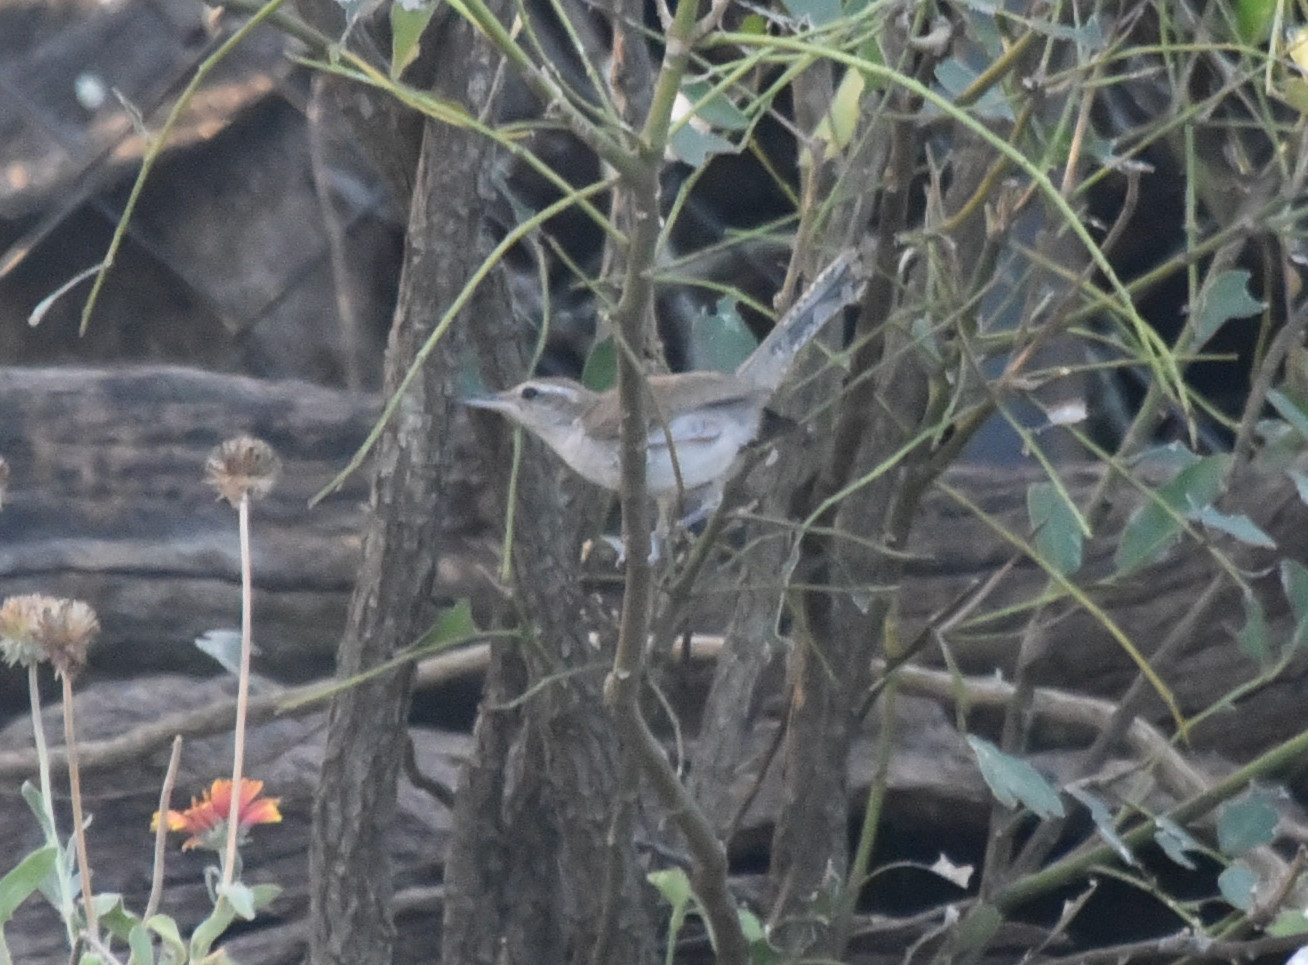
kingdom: Animalia
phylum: Chordata
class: Aves
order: Passeriformes
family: Troglodytidae
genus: Thryomanes
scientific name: Thryomanes bewickii
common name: Bewick's wren
